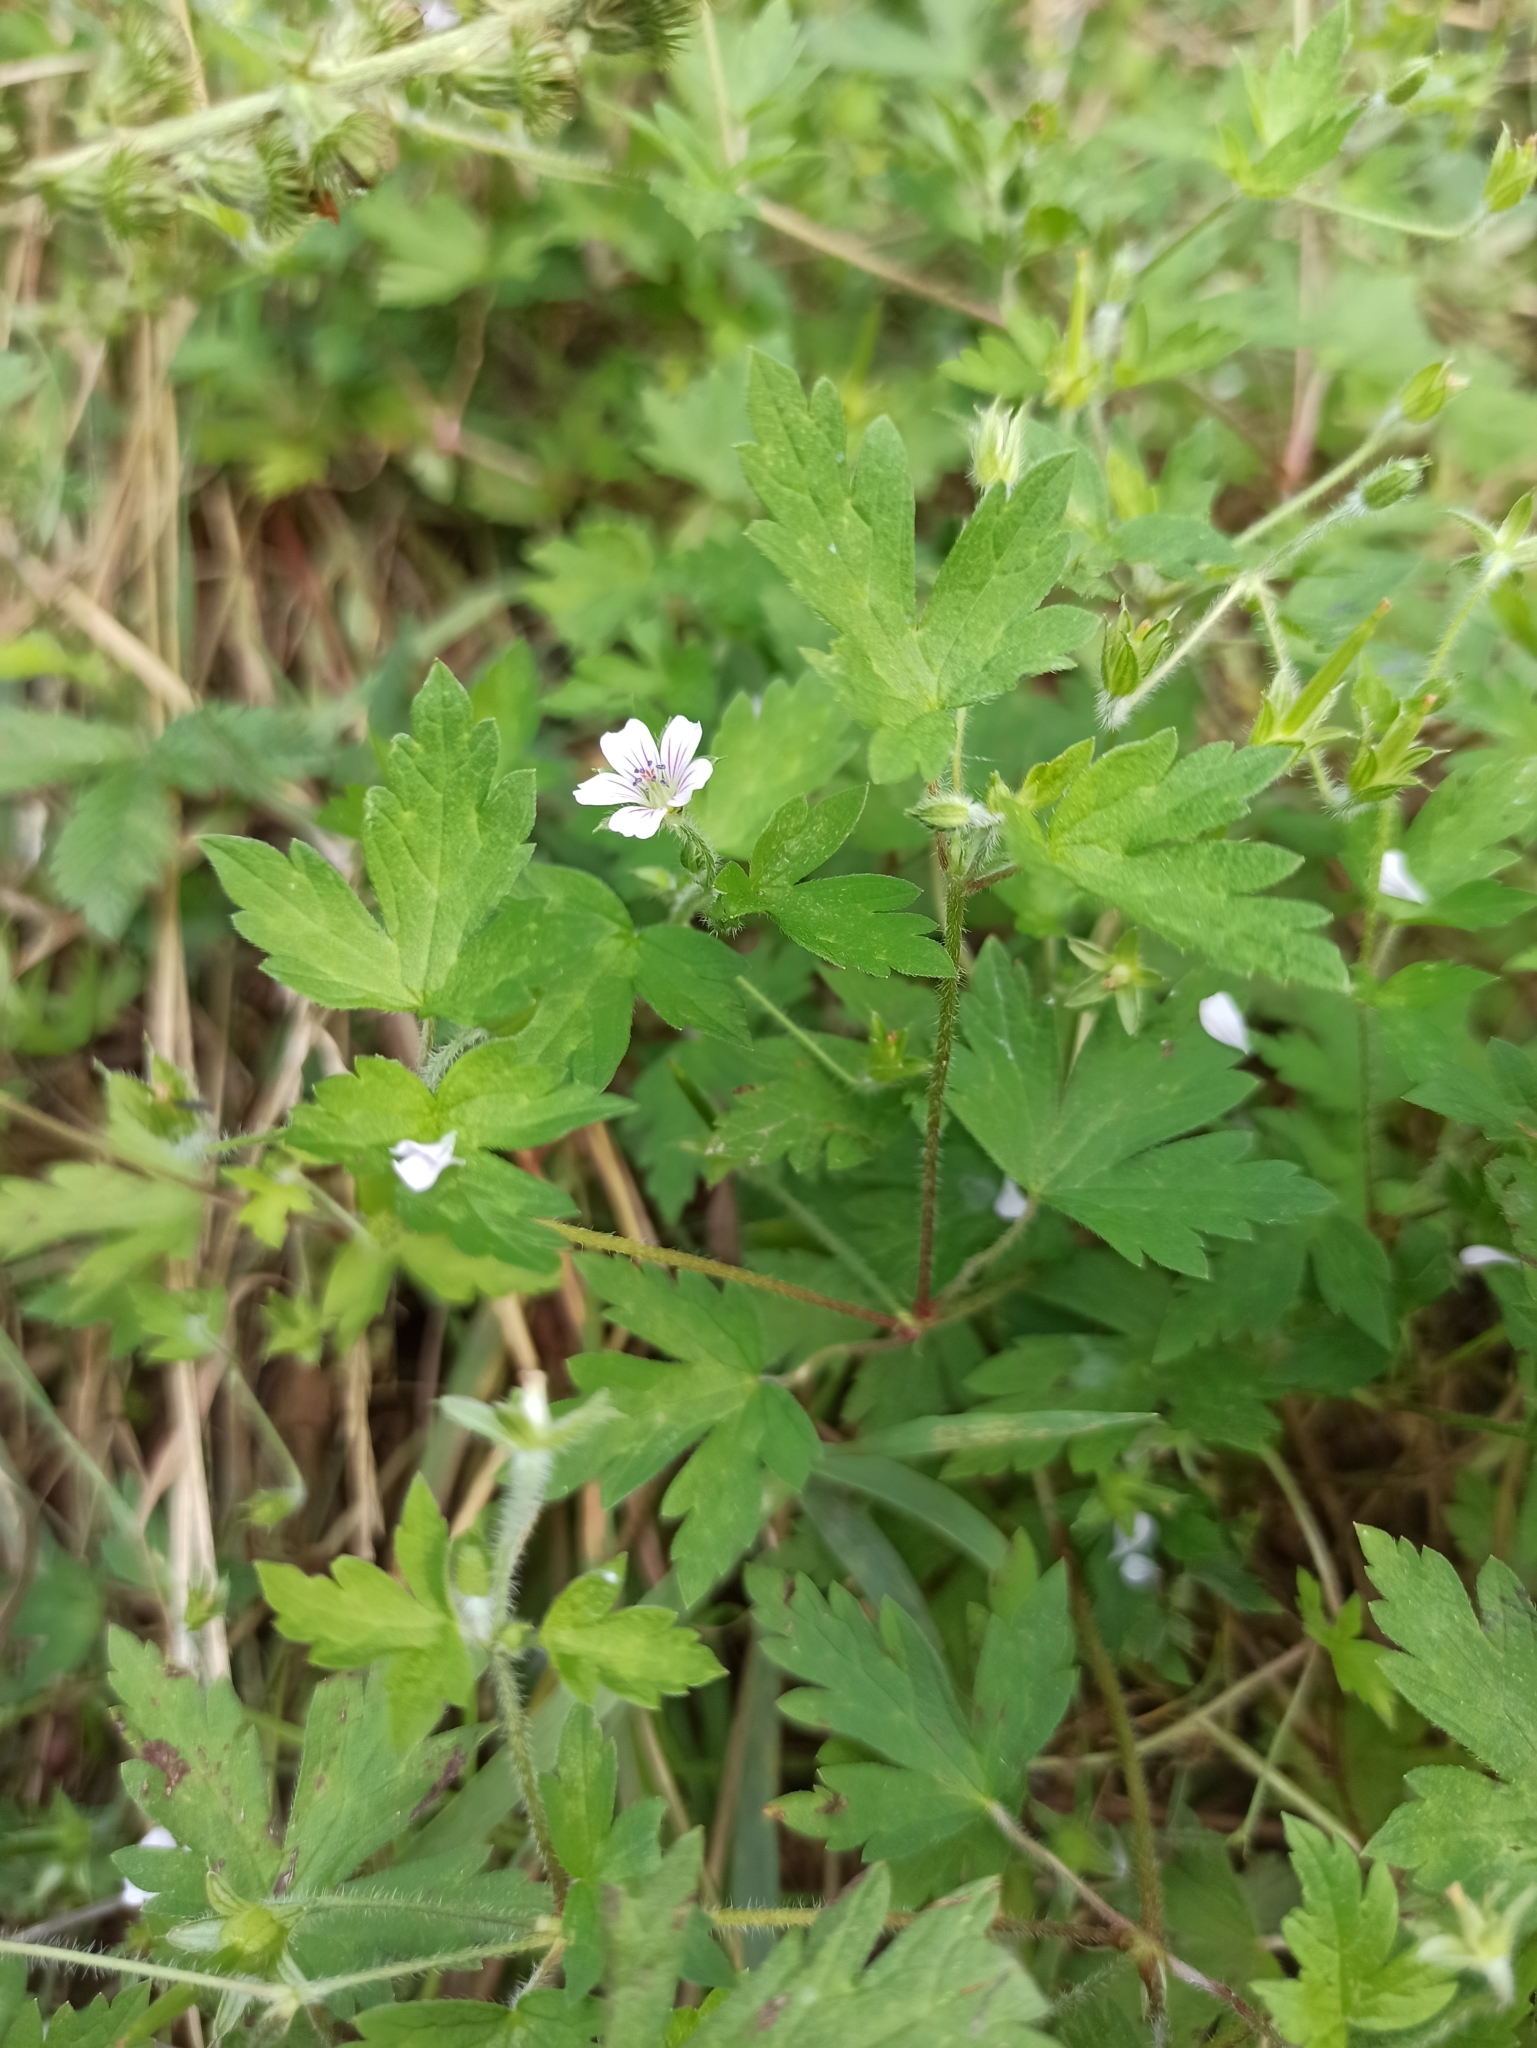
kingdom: Plantae
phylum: Tracheophyta
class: Magnoliopsida
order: Geraniales
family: Geraniaceae
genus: Geranium
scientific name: Geranium sibiricum
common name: Siberian crane's-bill
